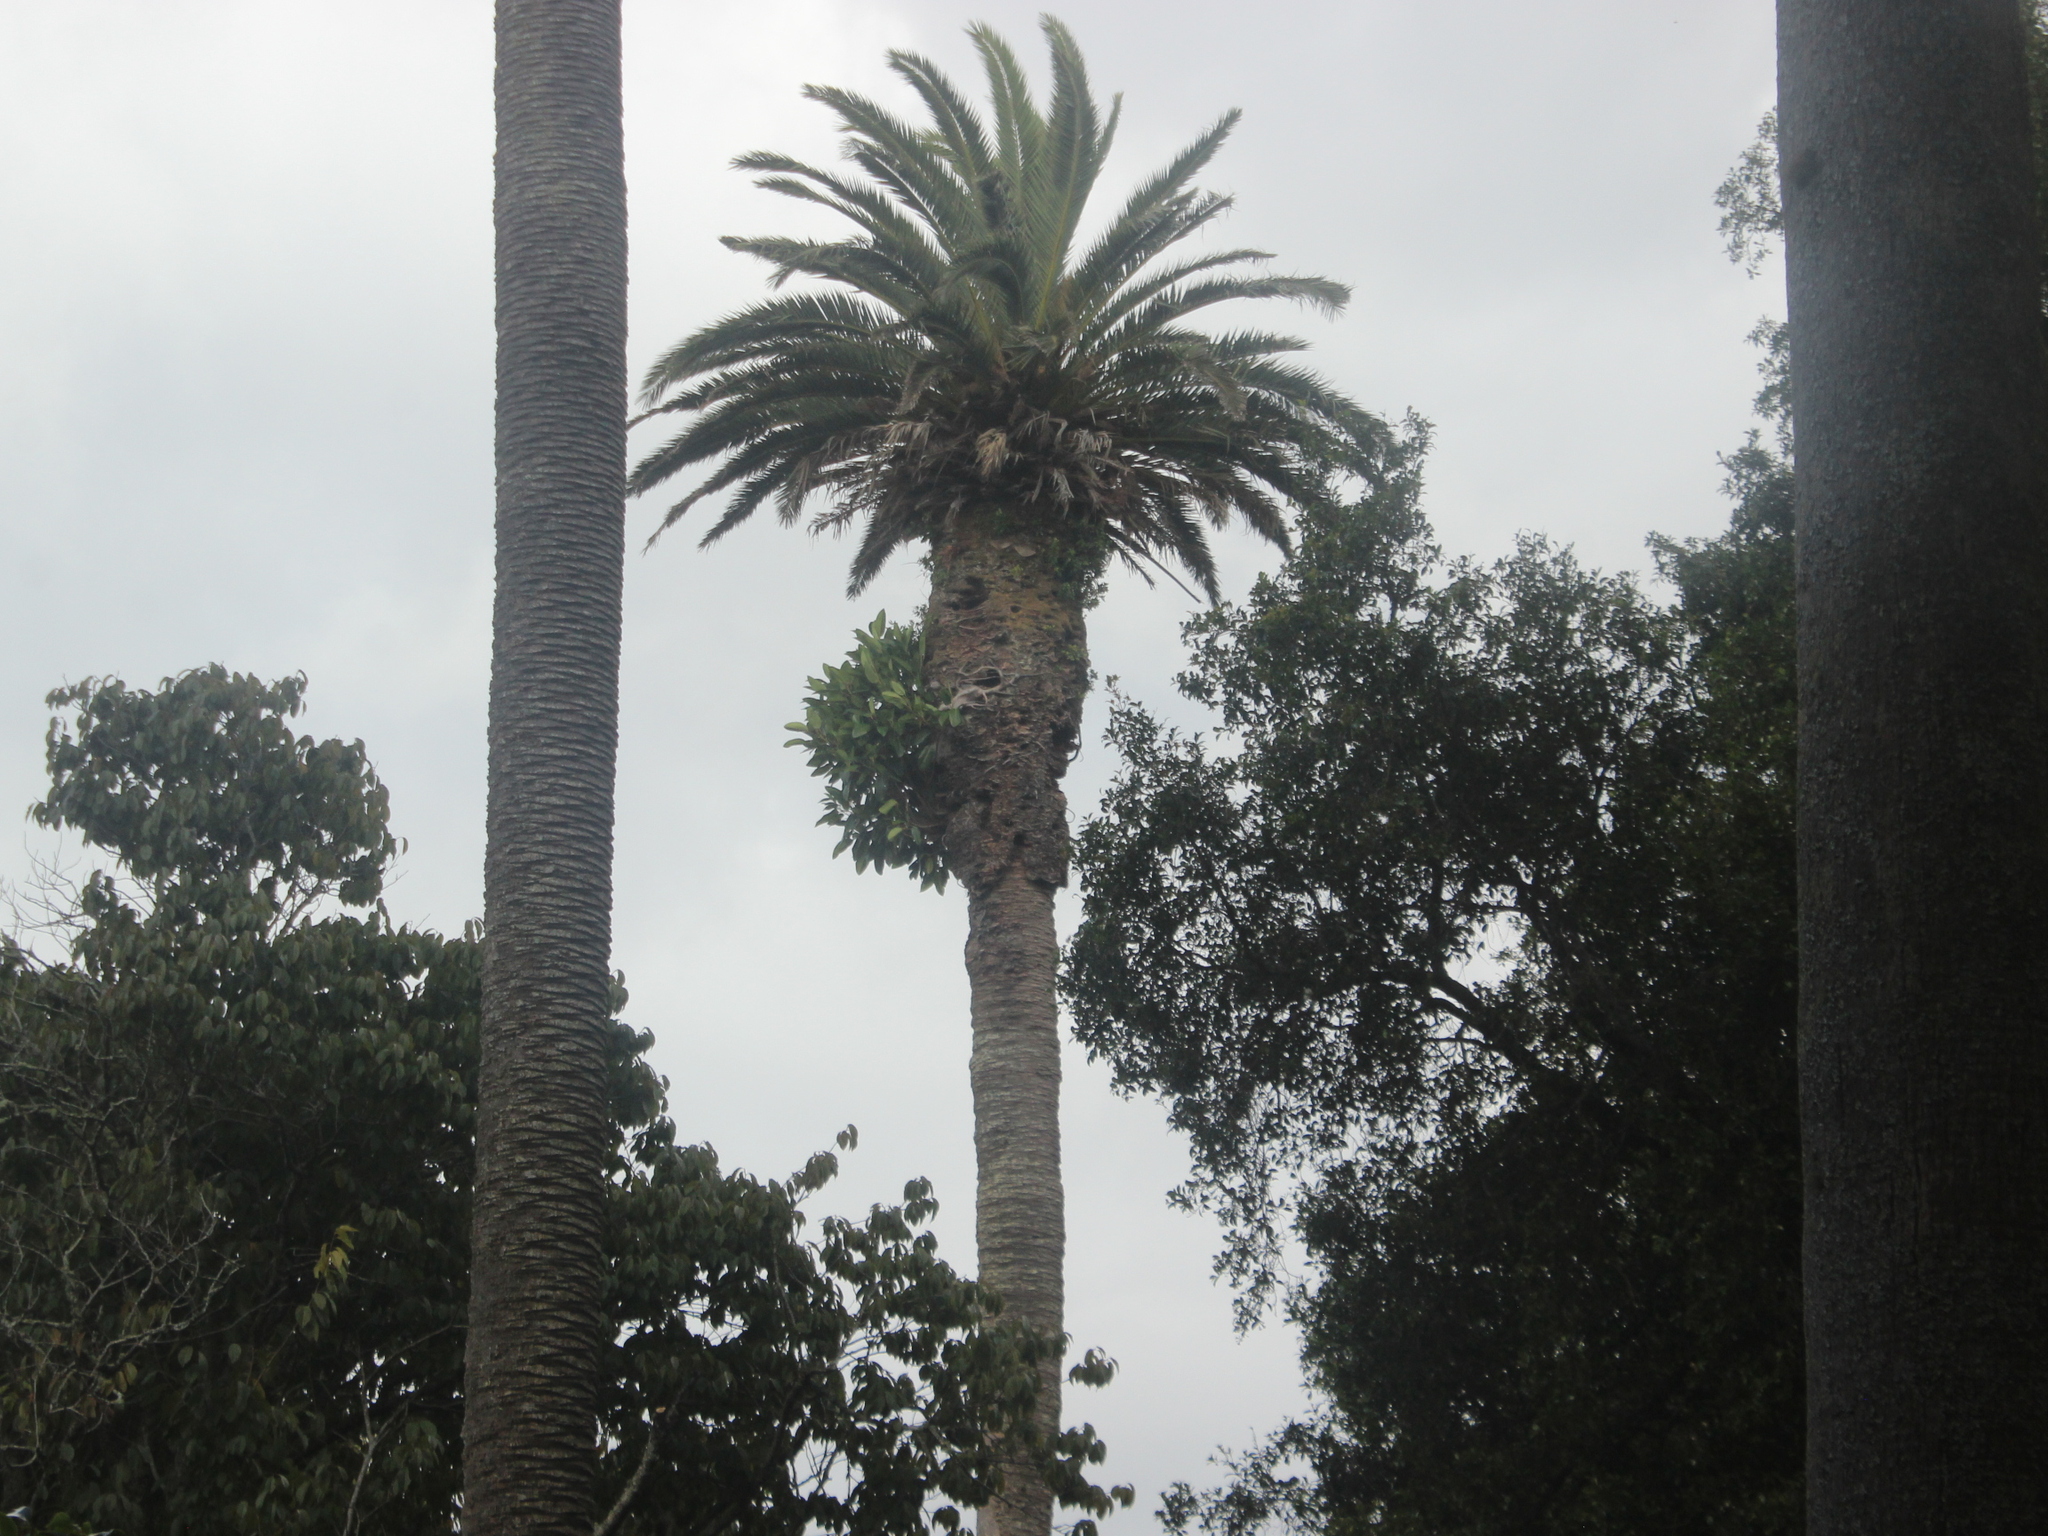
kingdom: Plantae
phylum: Tracheophyta
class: Magnoliopsida
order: Rosales
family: Moraceae
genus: Ficus
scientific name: Ficus macrophylla
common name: Moreton bay fig
